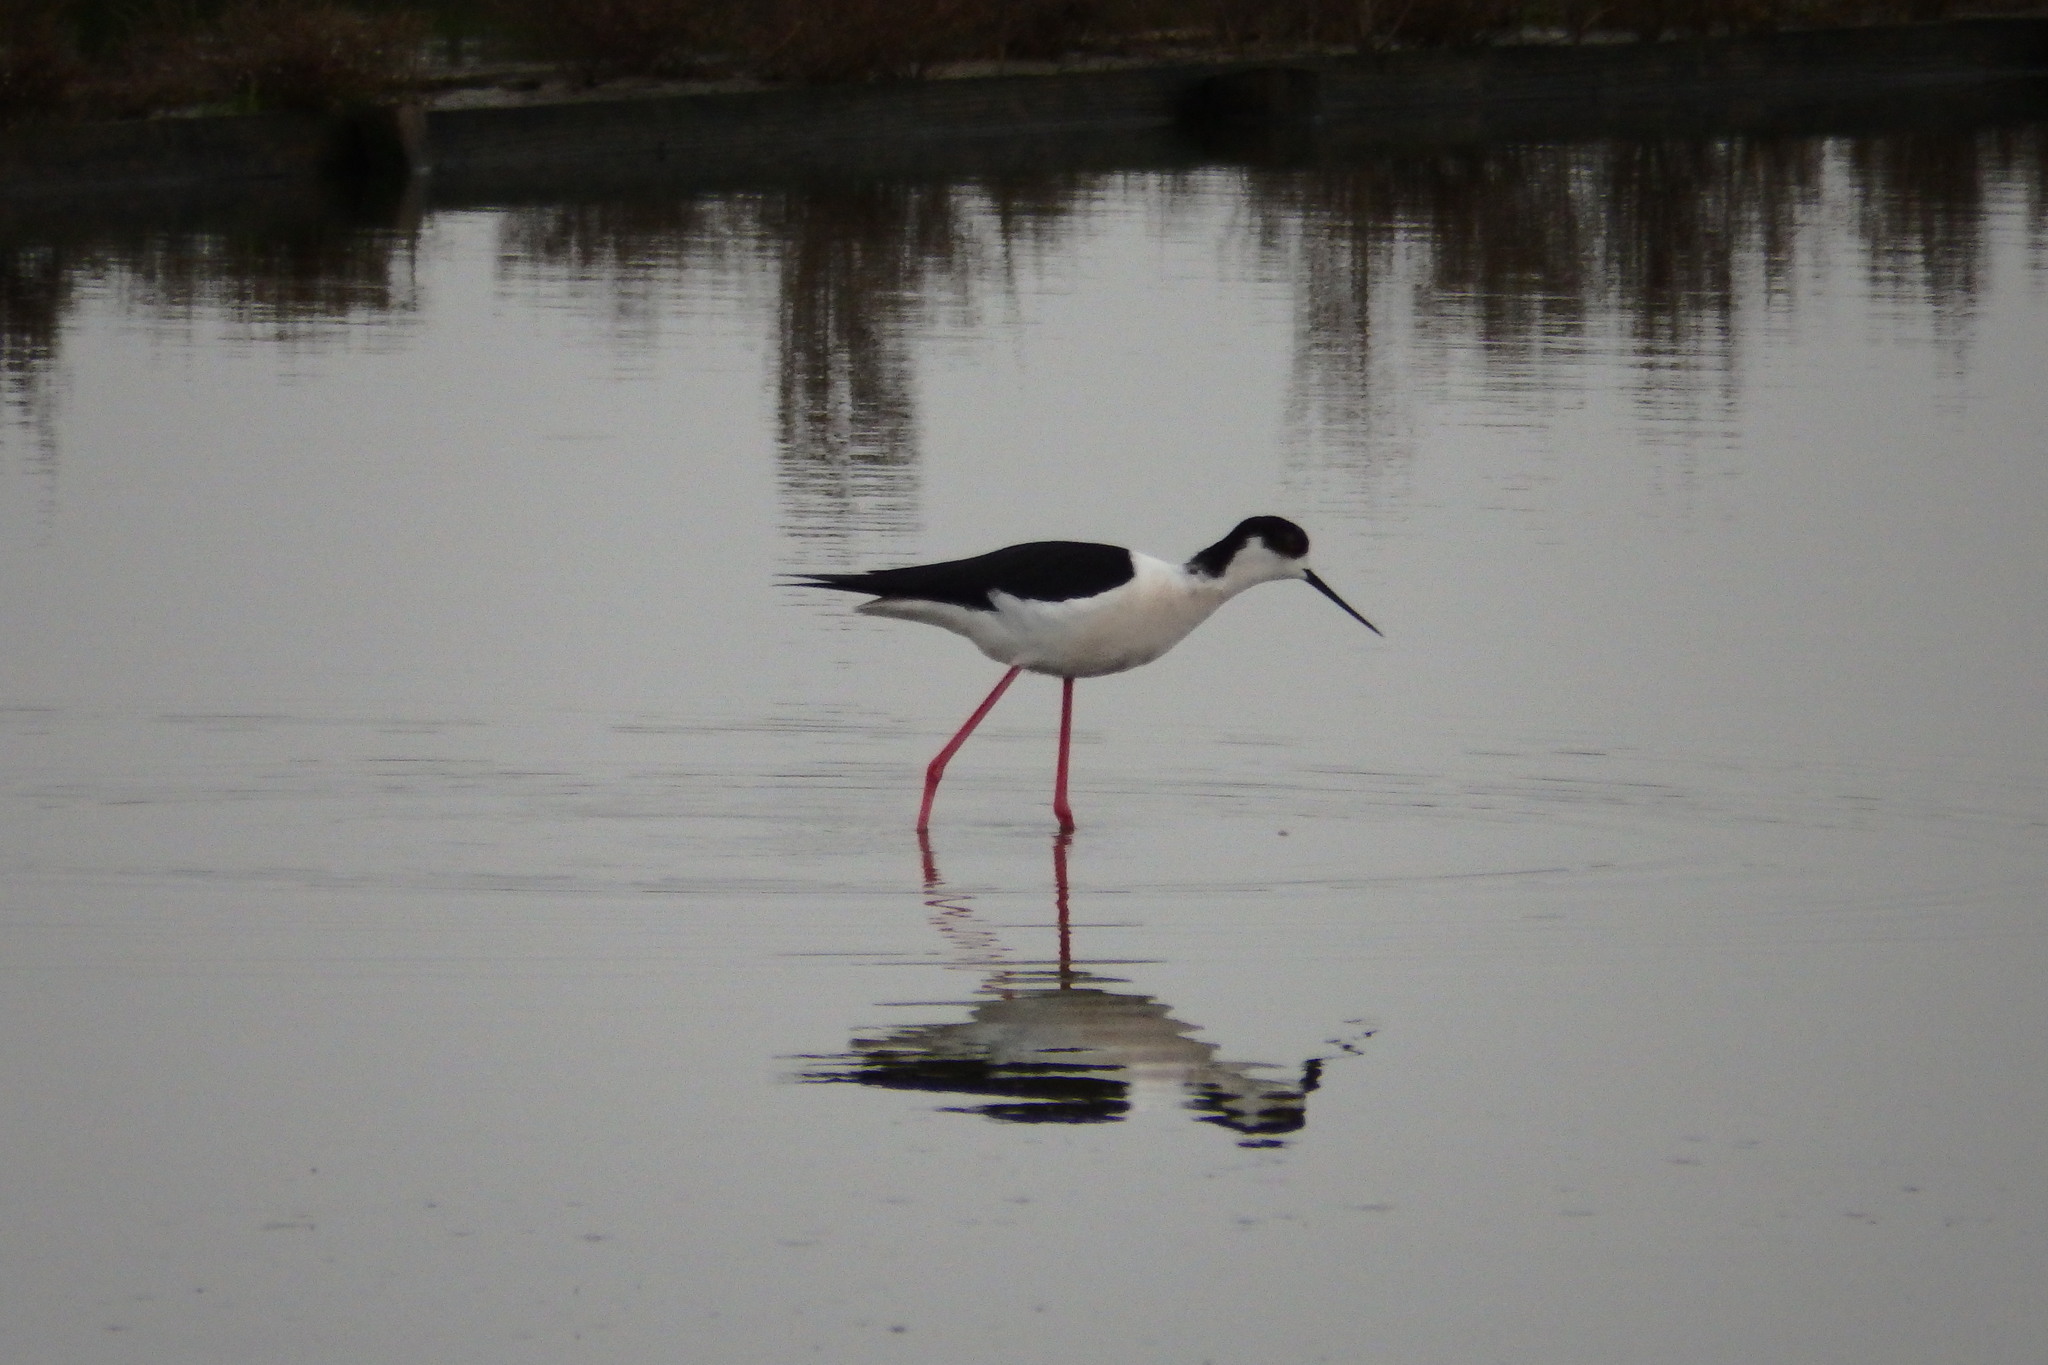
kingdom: Animalia
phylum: Chordata
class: Aves
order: Charadriiformes
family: Recurvirostridae
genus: Himantopus
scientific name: Himantopus himantopus
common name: Black-winged stilt
